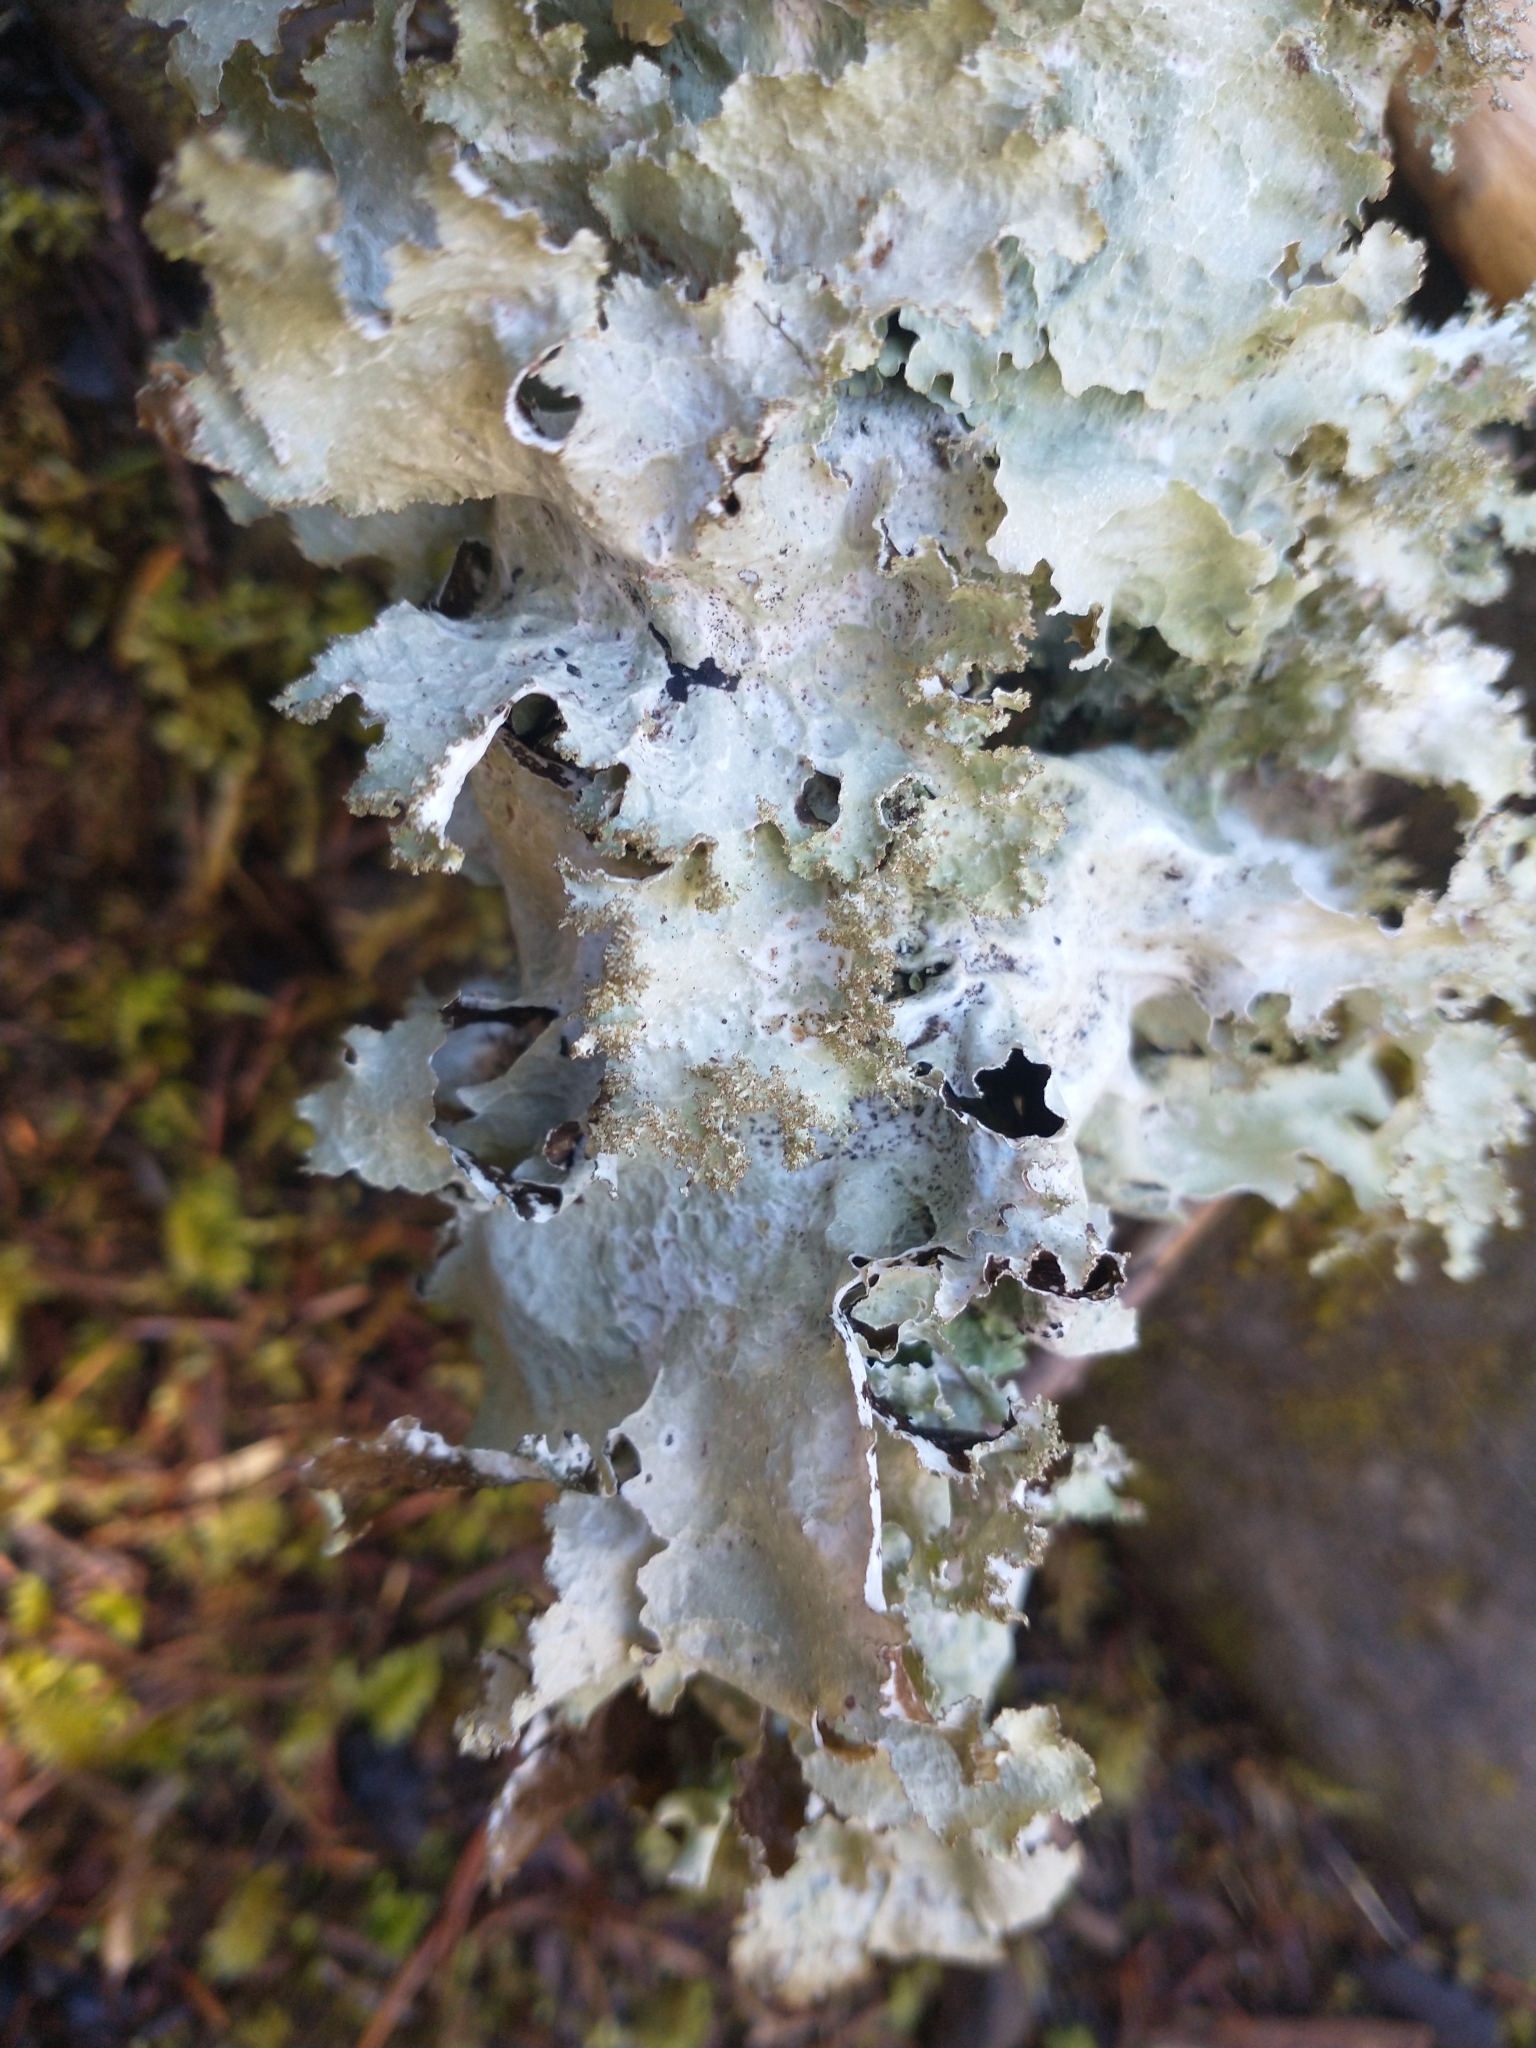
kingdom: Fungi
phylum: Ascomycota
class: Lecanoromycetes
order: Lecanorales
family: Parmeliaceae
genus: Platismatia
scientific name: Platismatia glauca
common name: Varied rag lichen
